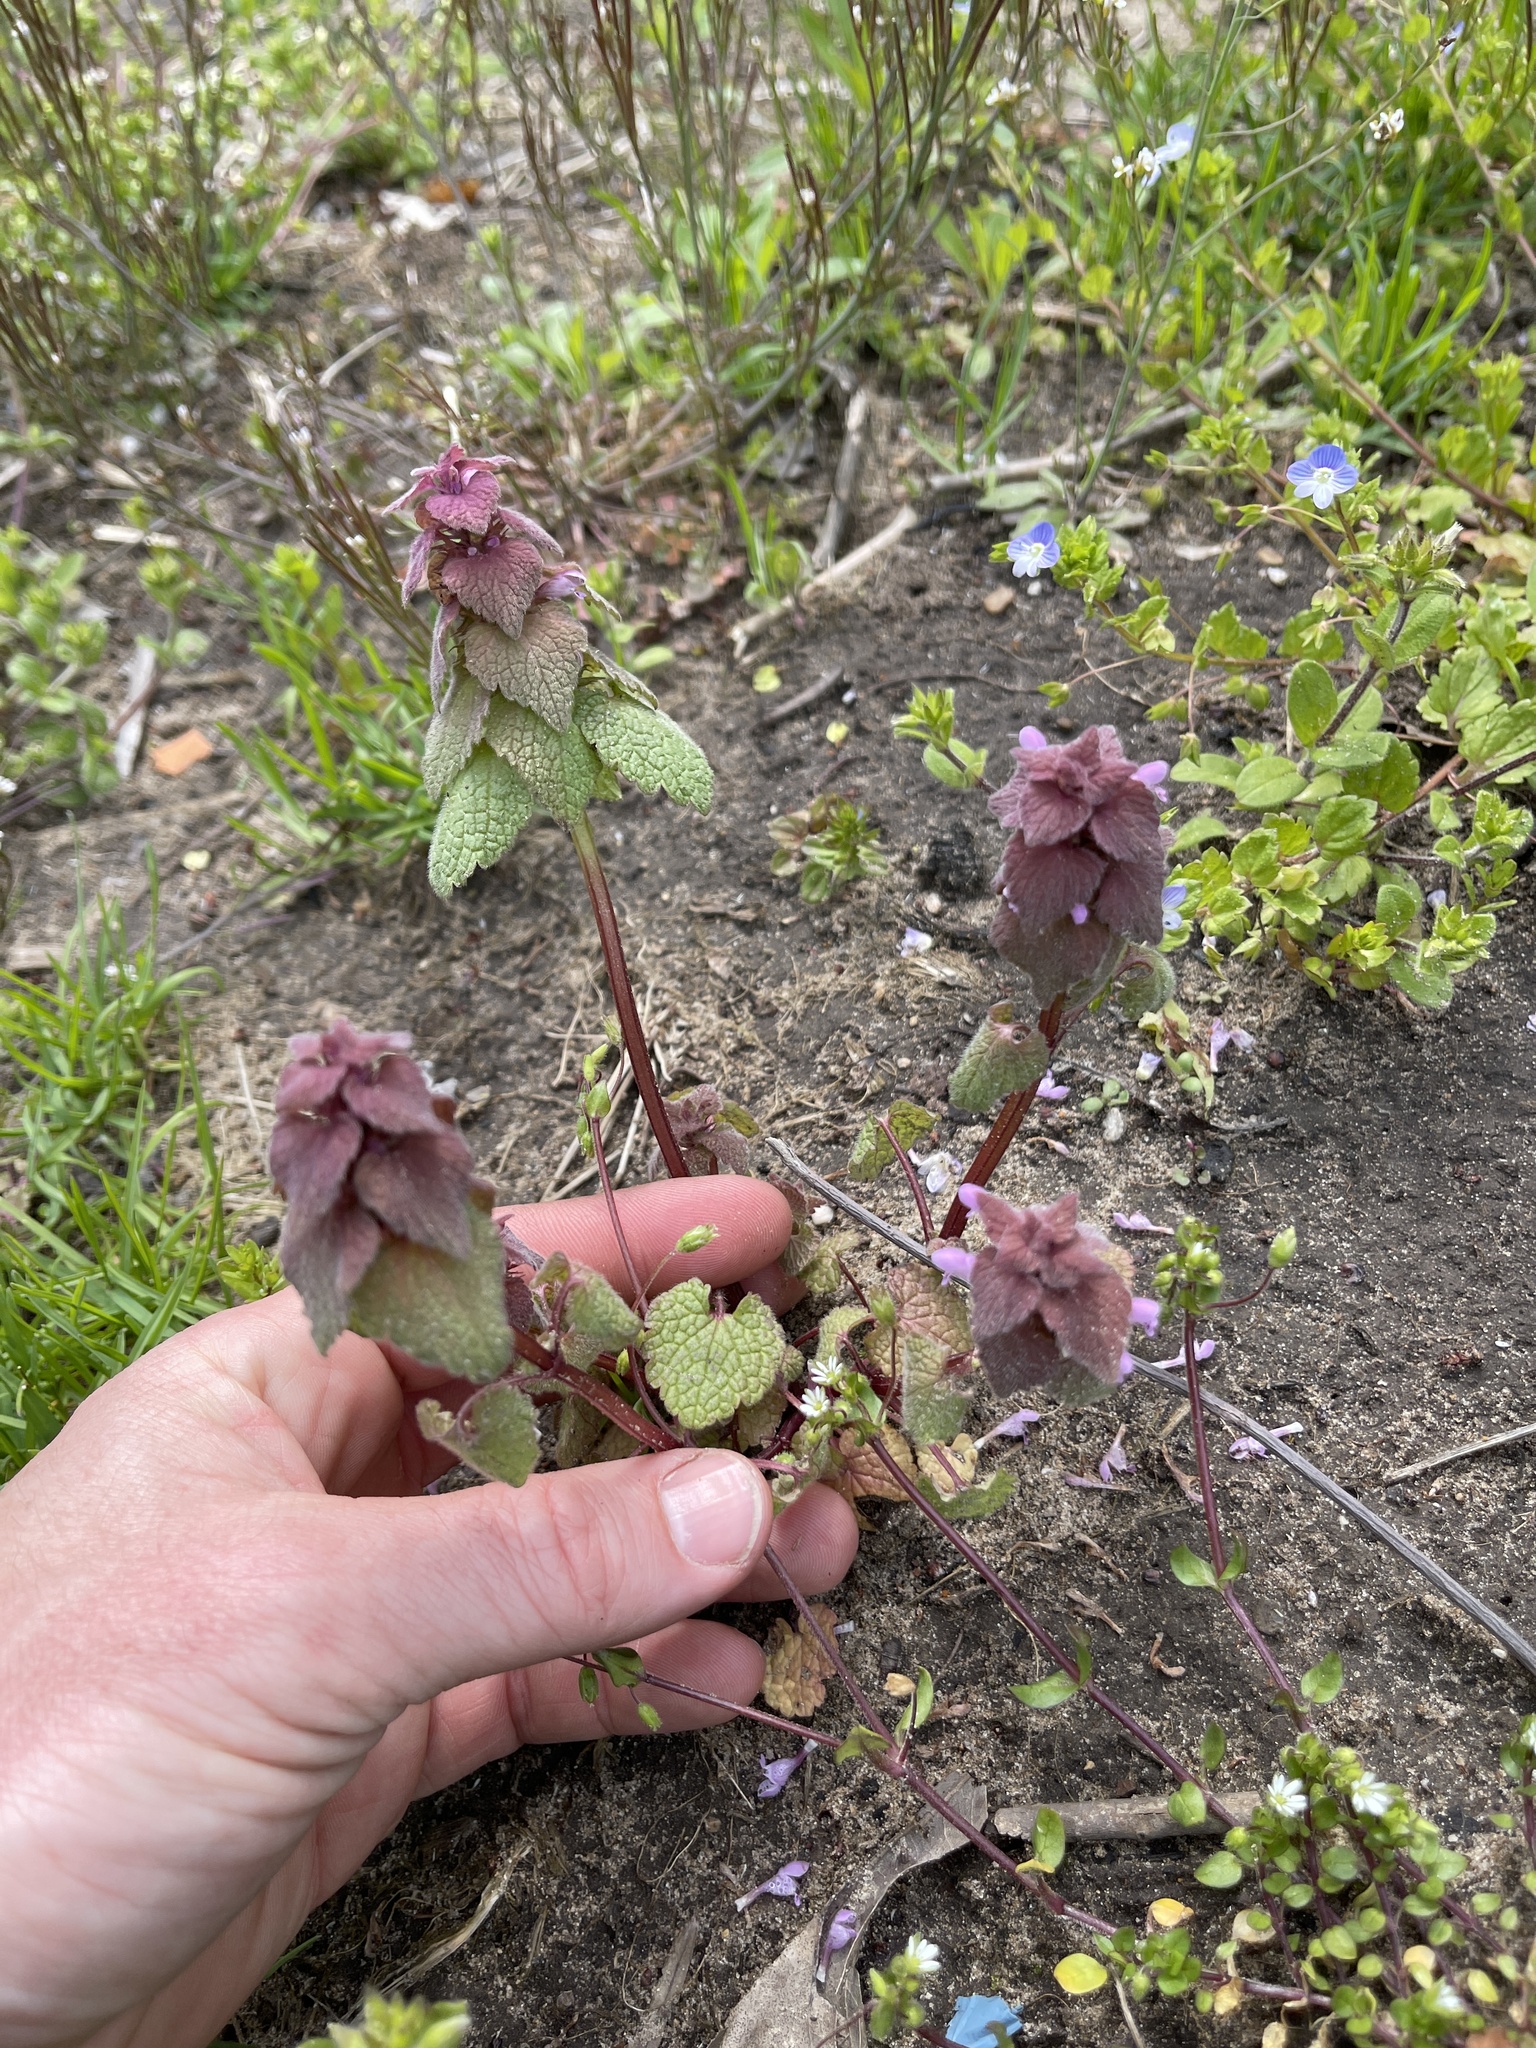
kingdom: Plantae
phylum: Tracheophyta
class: Magnoliopsida
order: Lamiales
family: Lamiaceae
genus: Lamium
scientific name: Lamium purpureum
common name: Red dead-nettle
